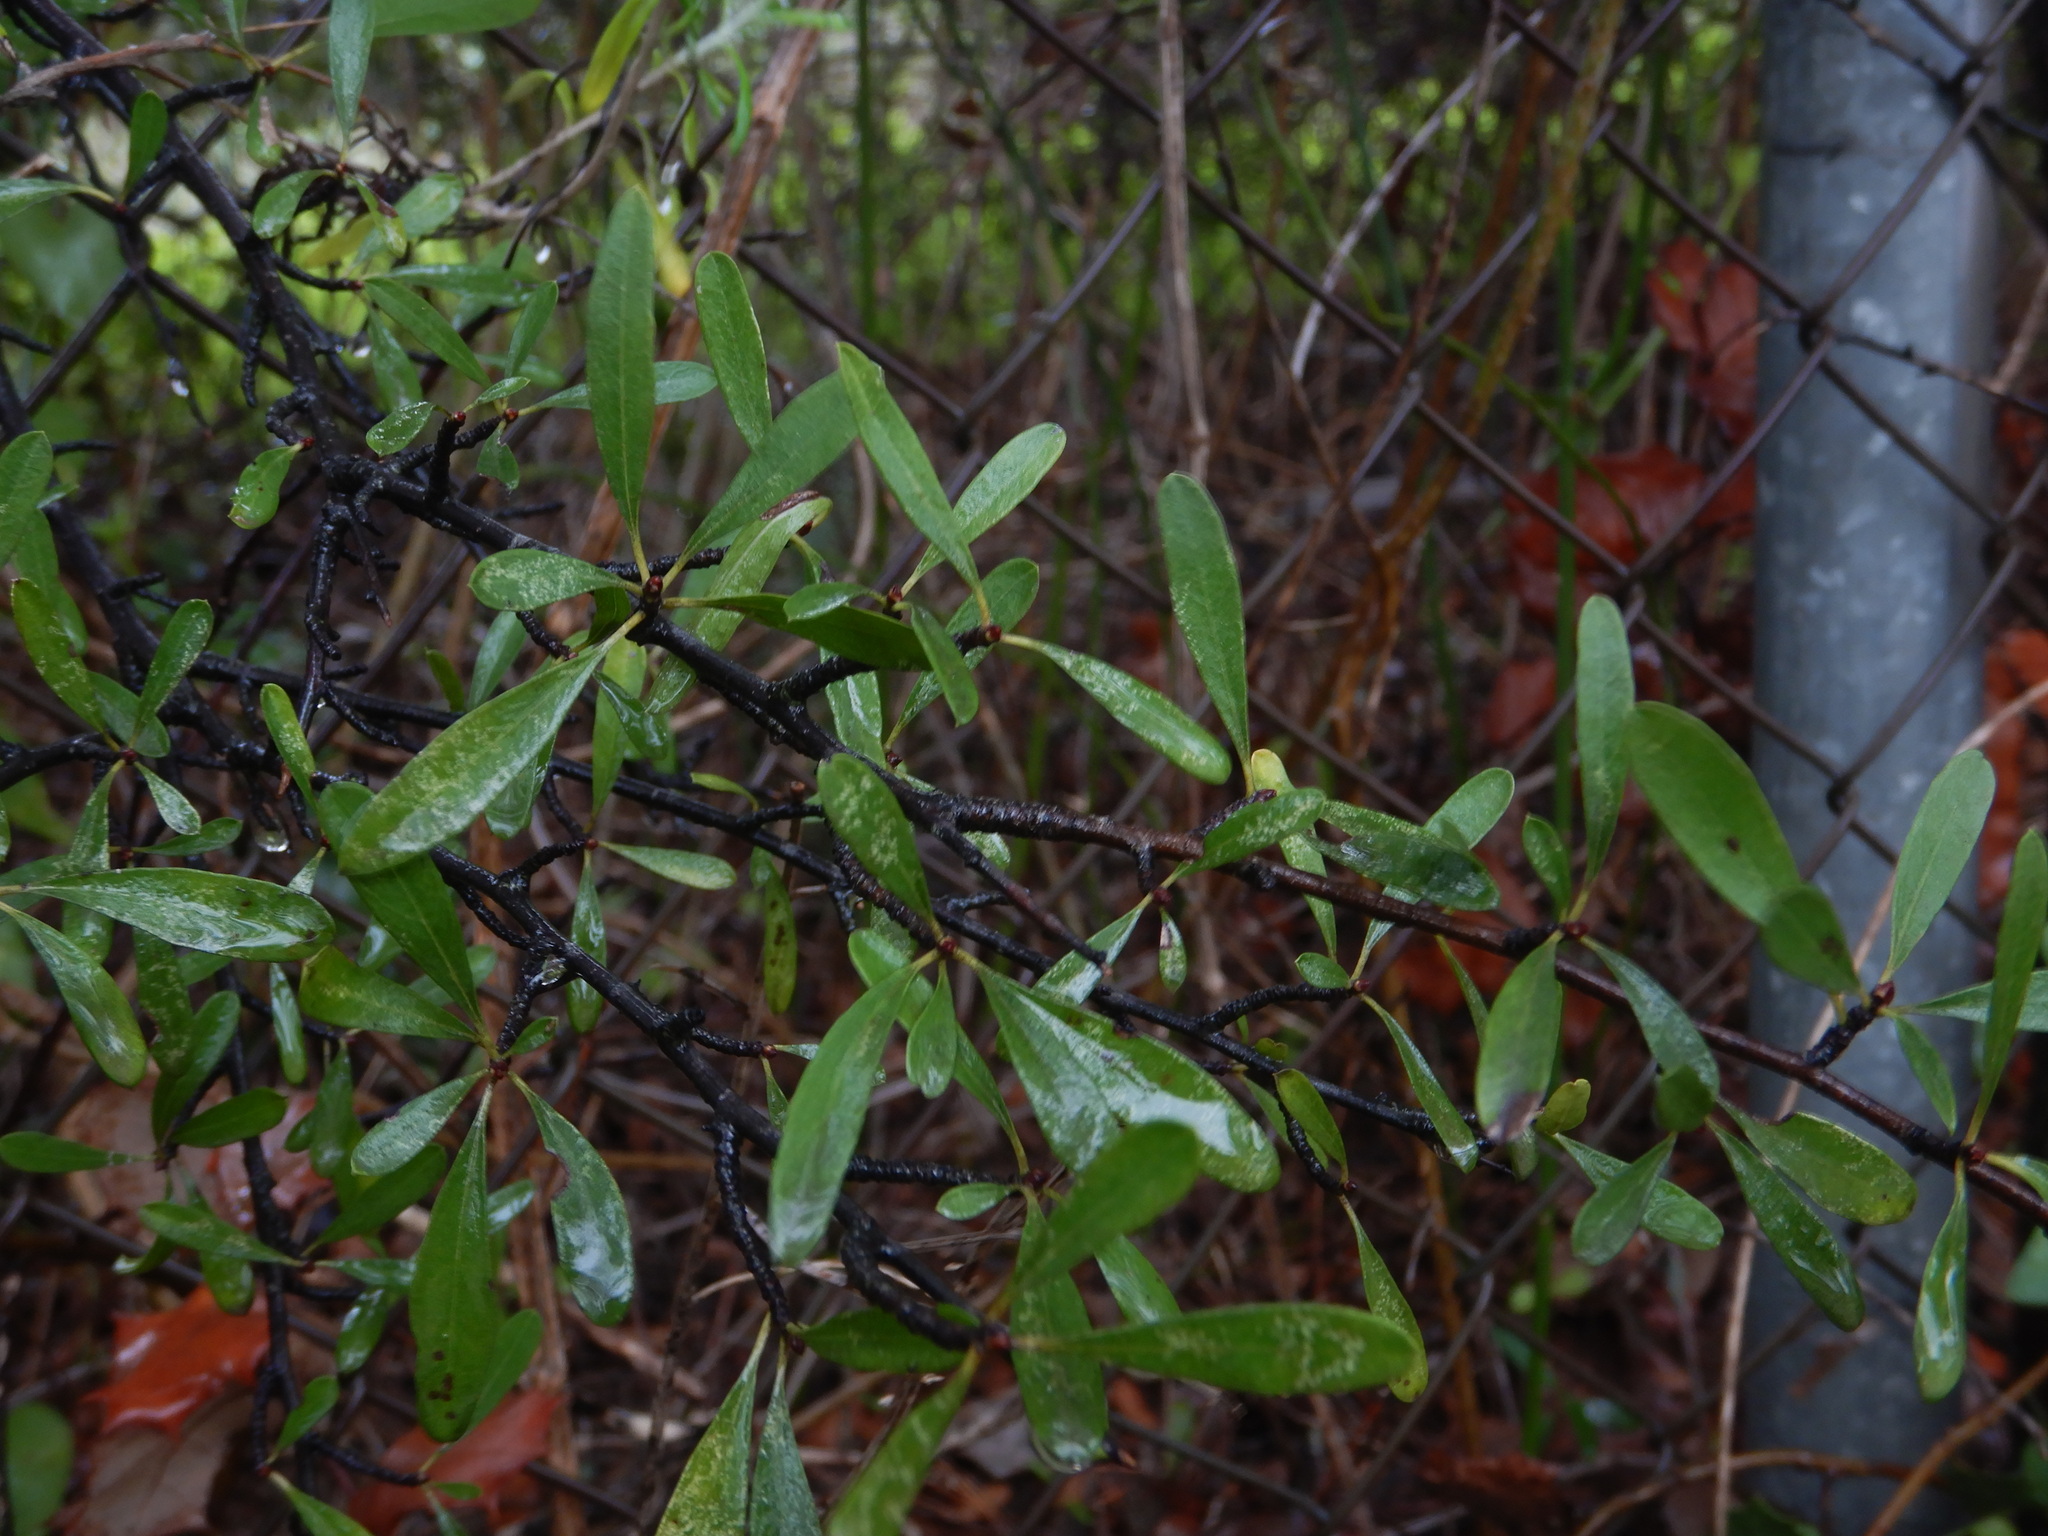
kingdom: Plantae
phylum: Tracheophyta
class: Magnoliopsida
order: Rosales
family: Rhamnaceae
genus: Rhamnus
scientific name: Rhamnus oleoides
